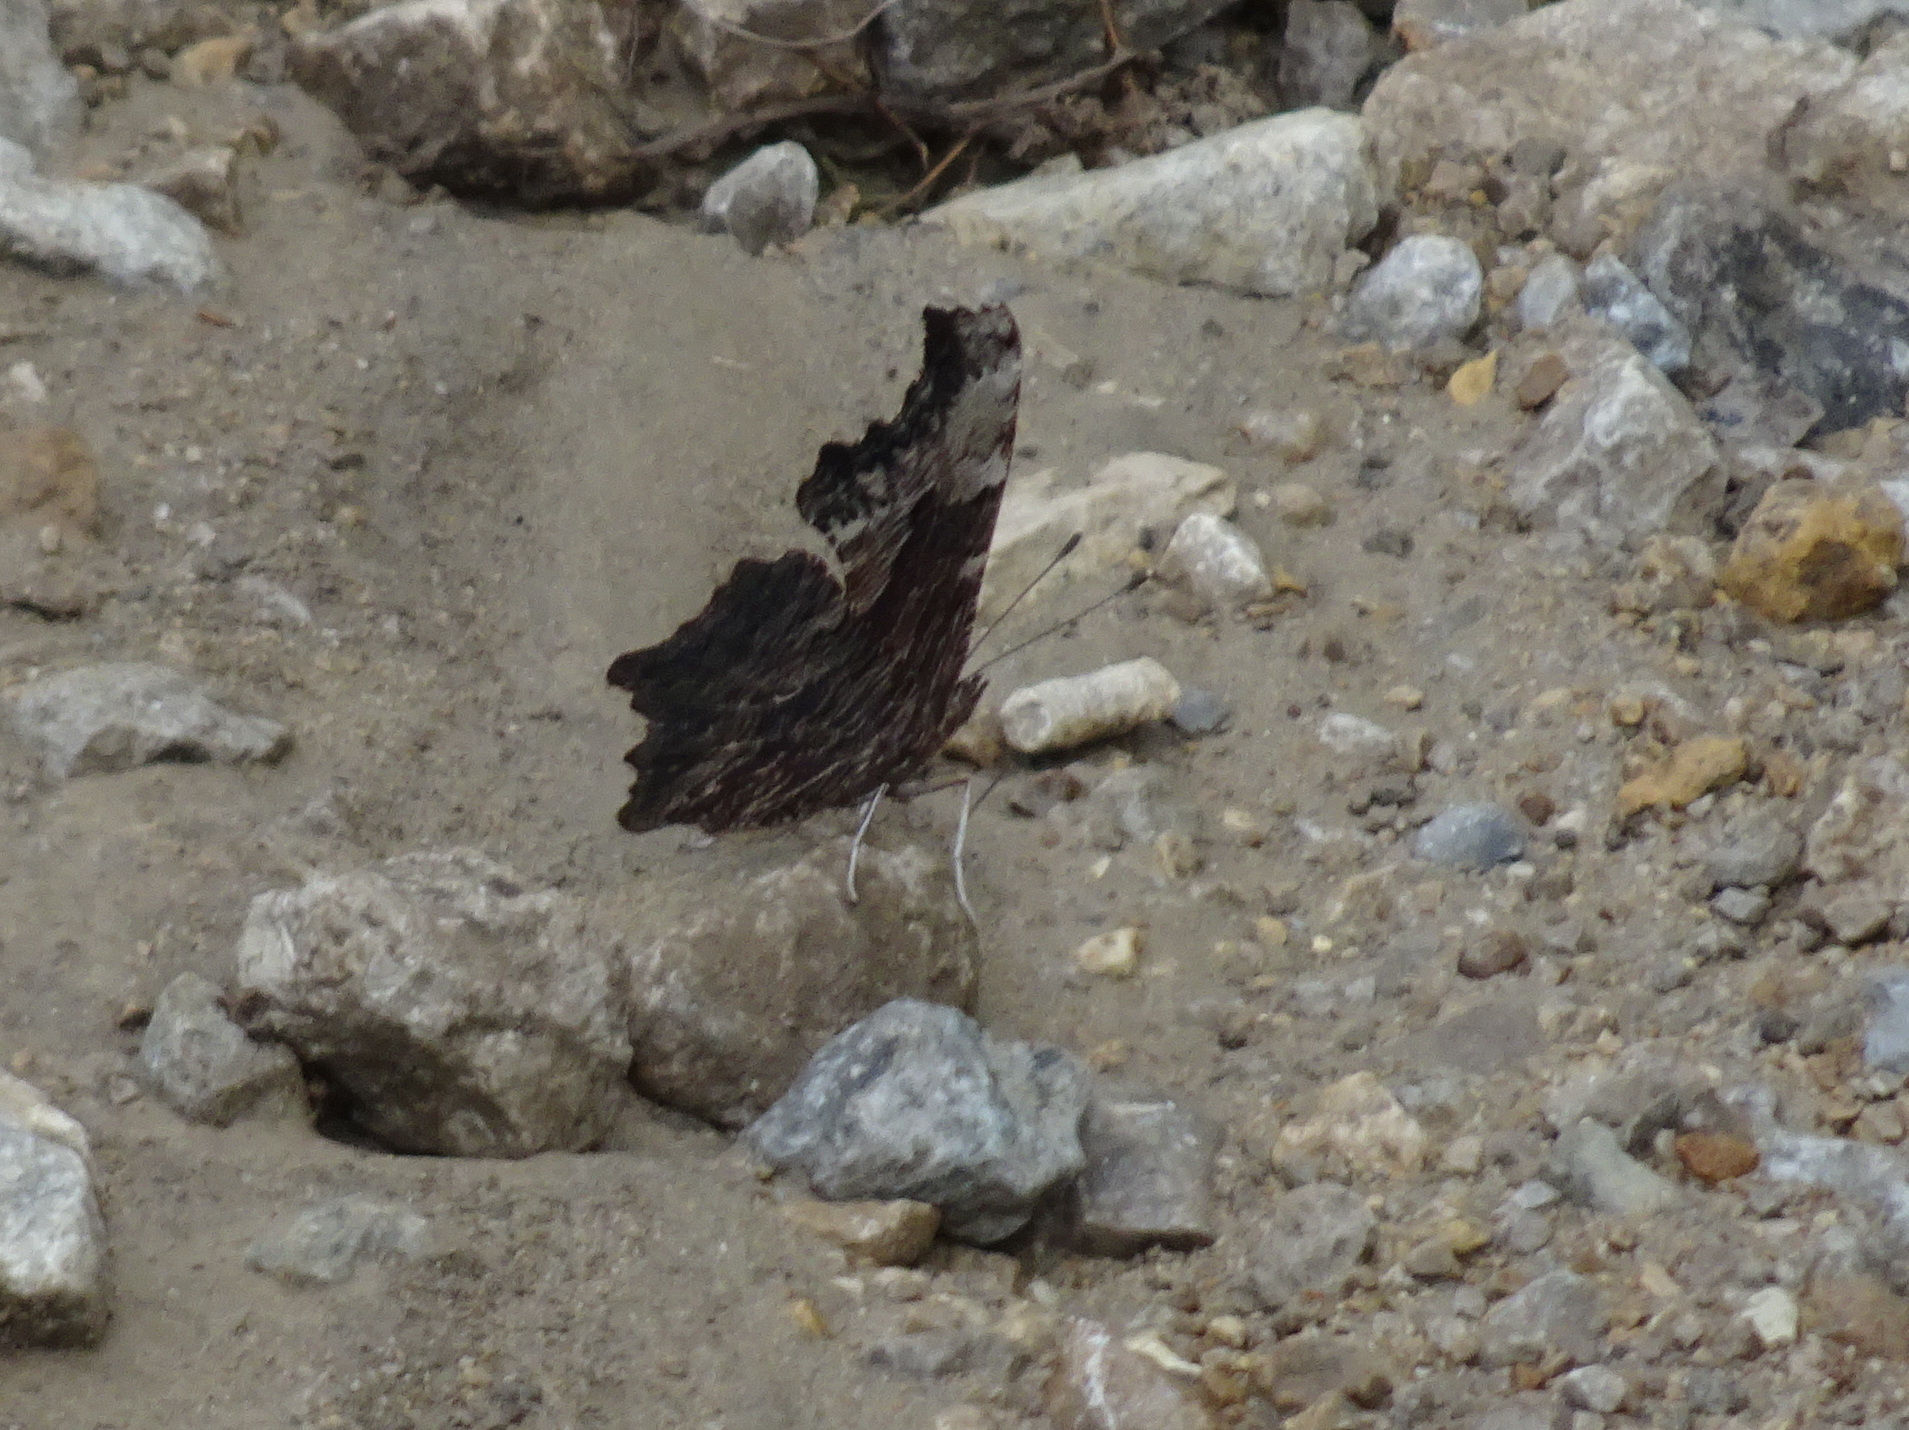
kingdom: Animalia
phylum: Arthropoda
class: Insecta
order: Lepidoptera
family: Nymphalidae
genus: Polygonia
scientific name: Polygonia progne
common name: Gray comma
